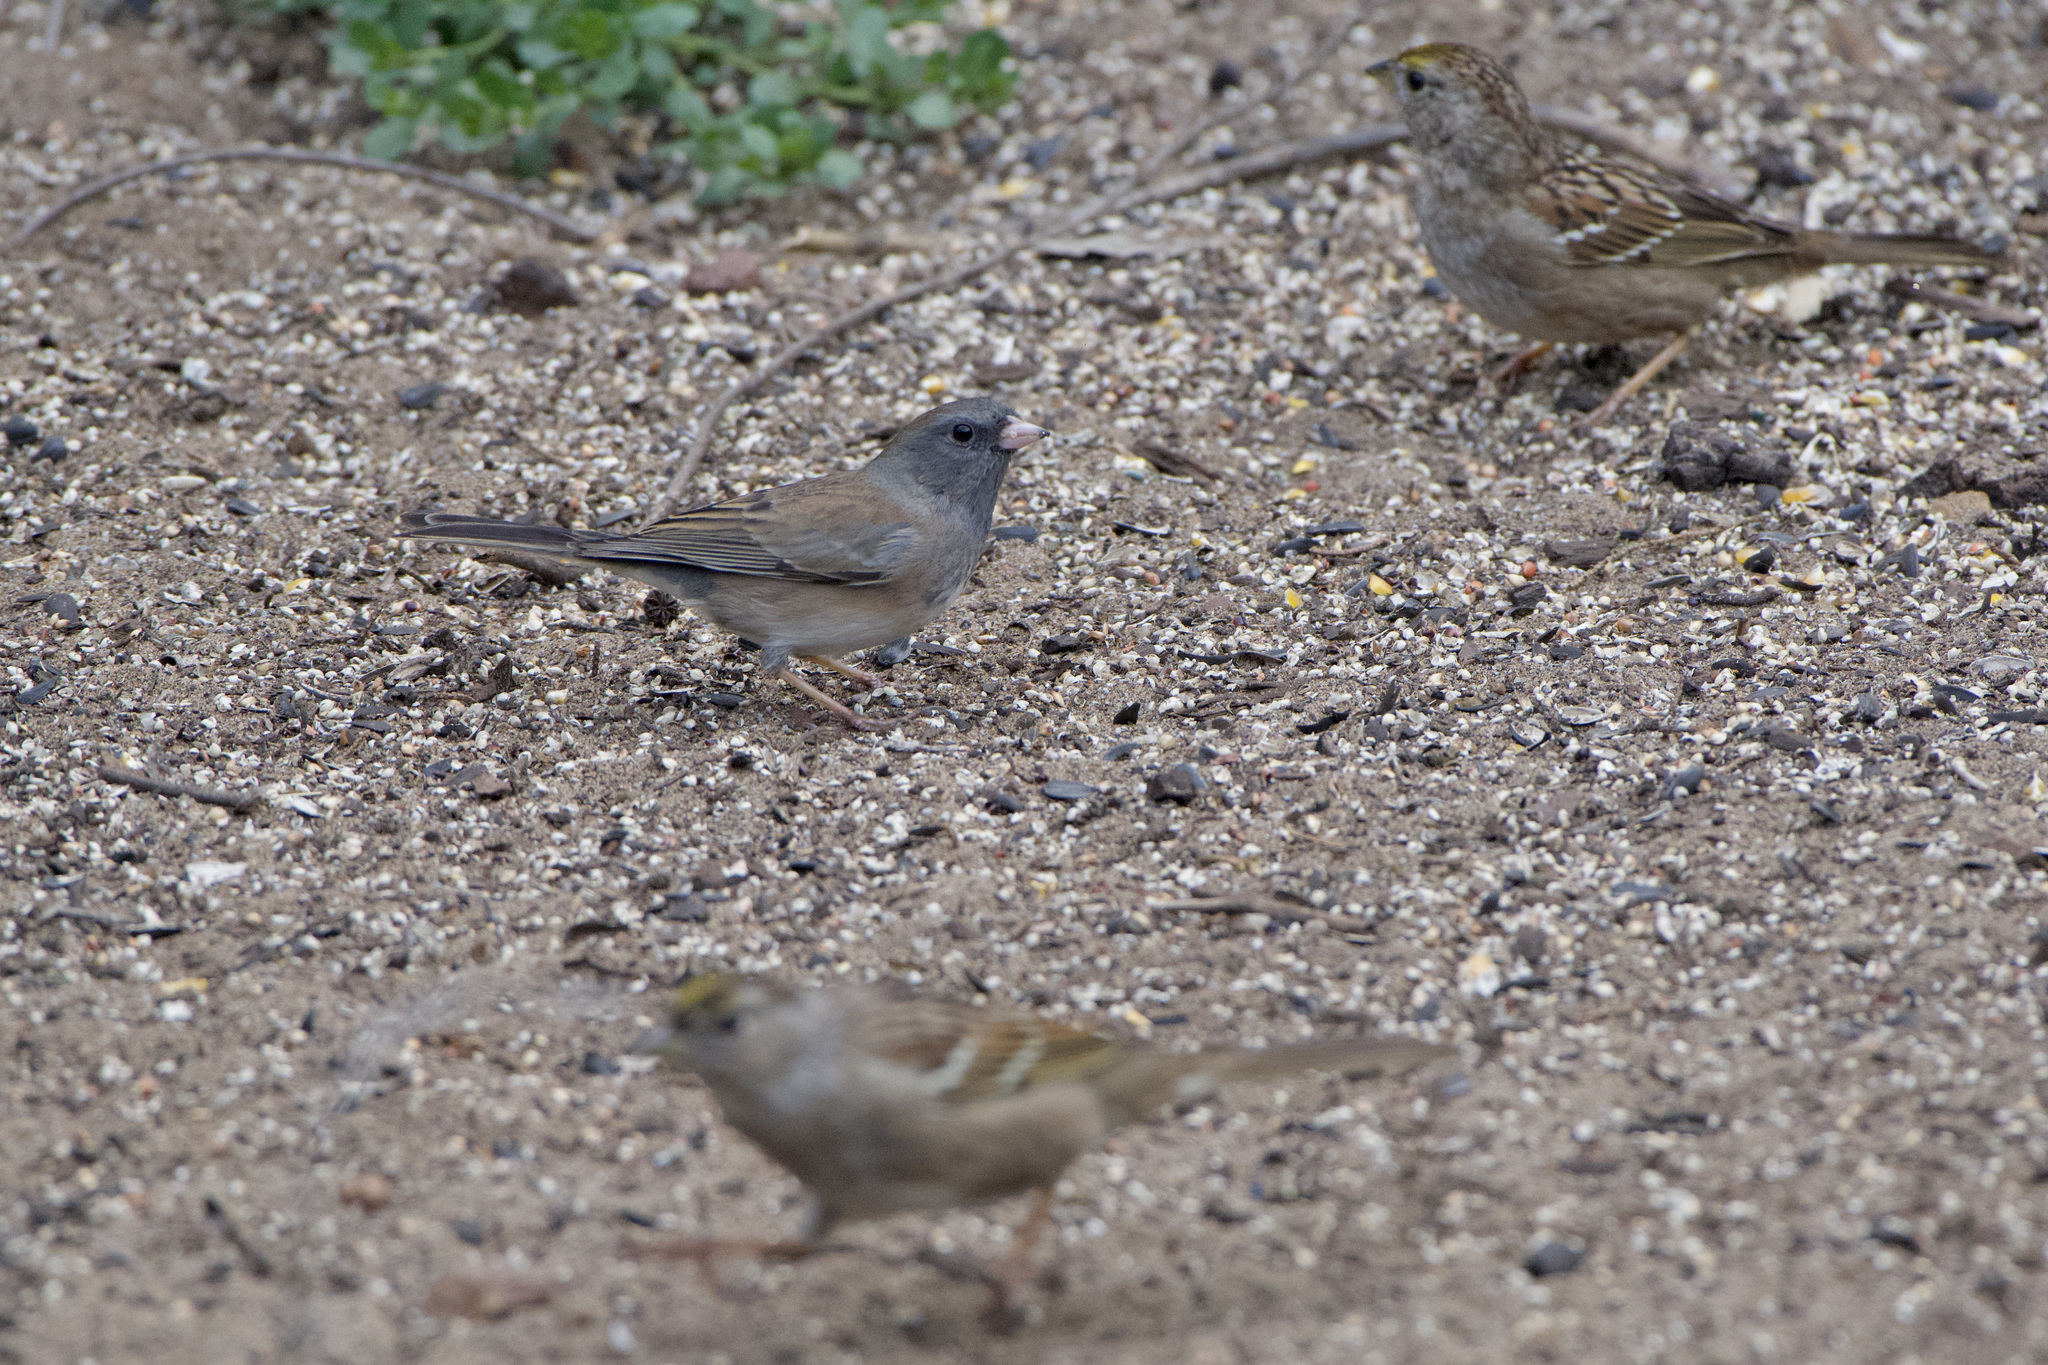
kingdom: Animalia
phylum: Chordata
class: Aves
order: Passeriformes
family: Passerellidae
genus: Junco
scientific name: Junco hyemalis
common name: Dark-eyed junco
